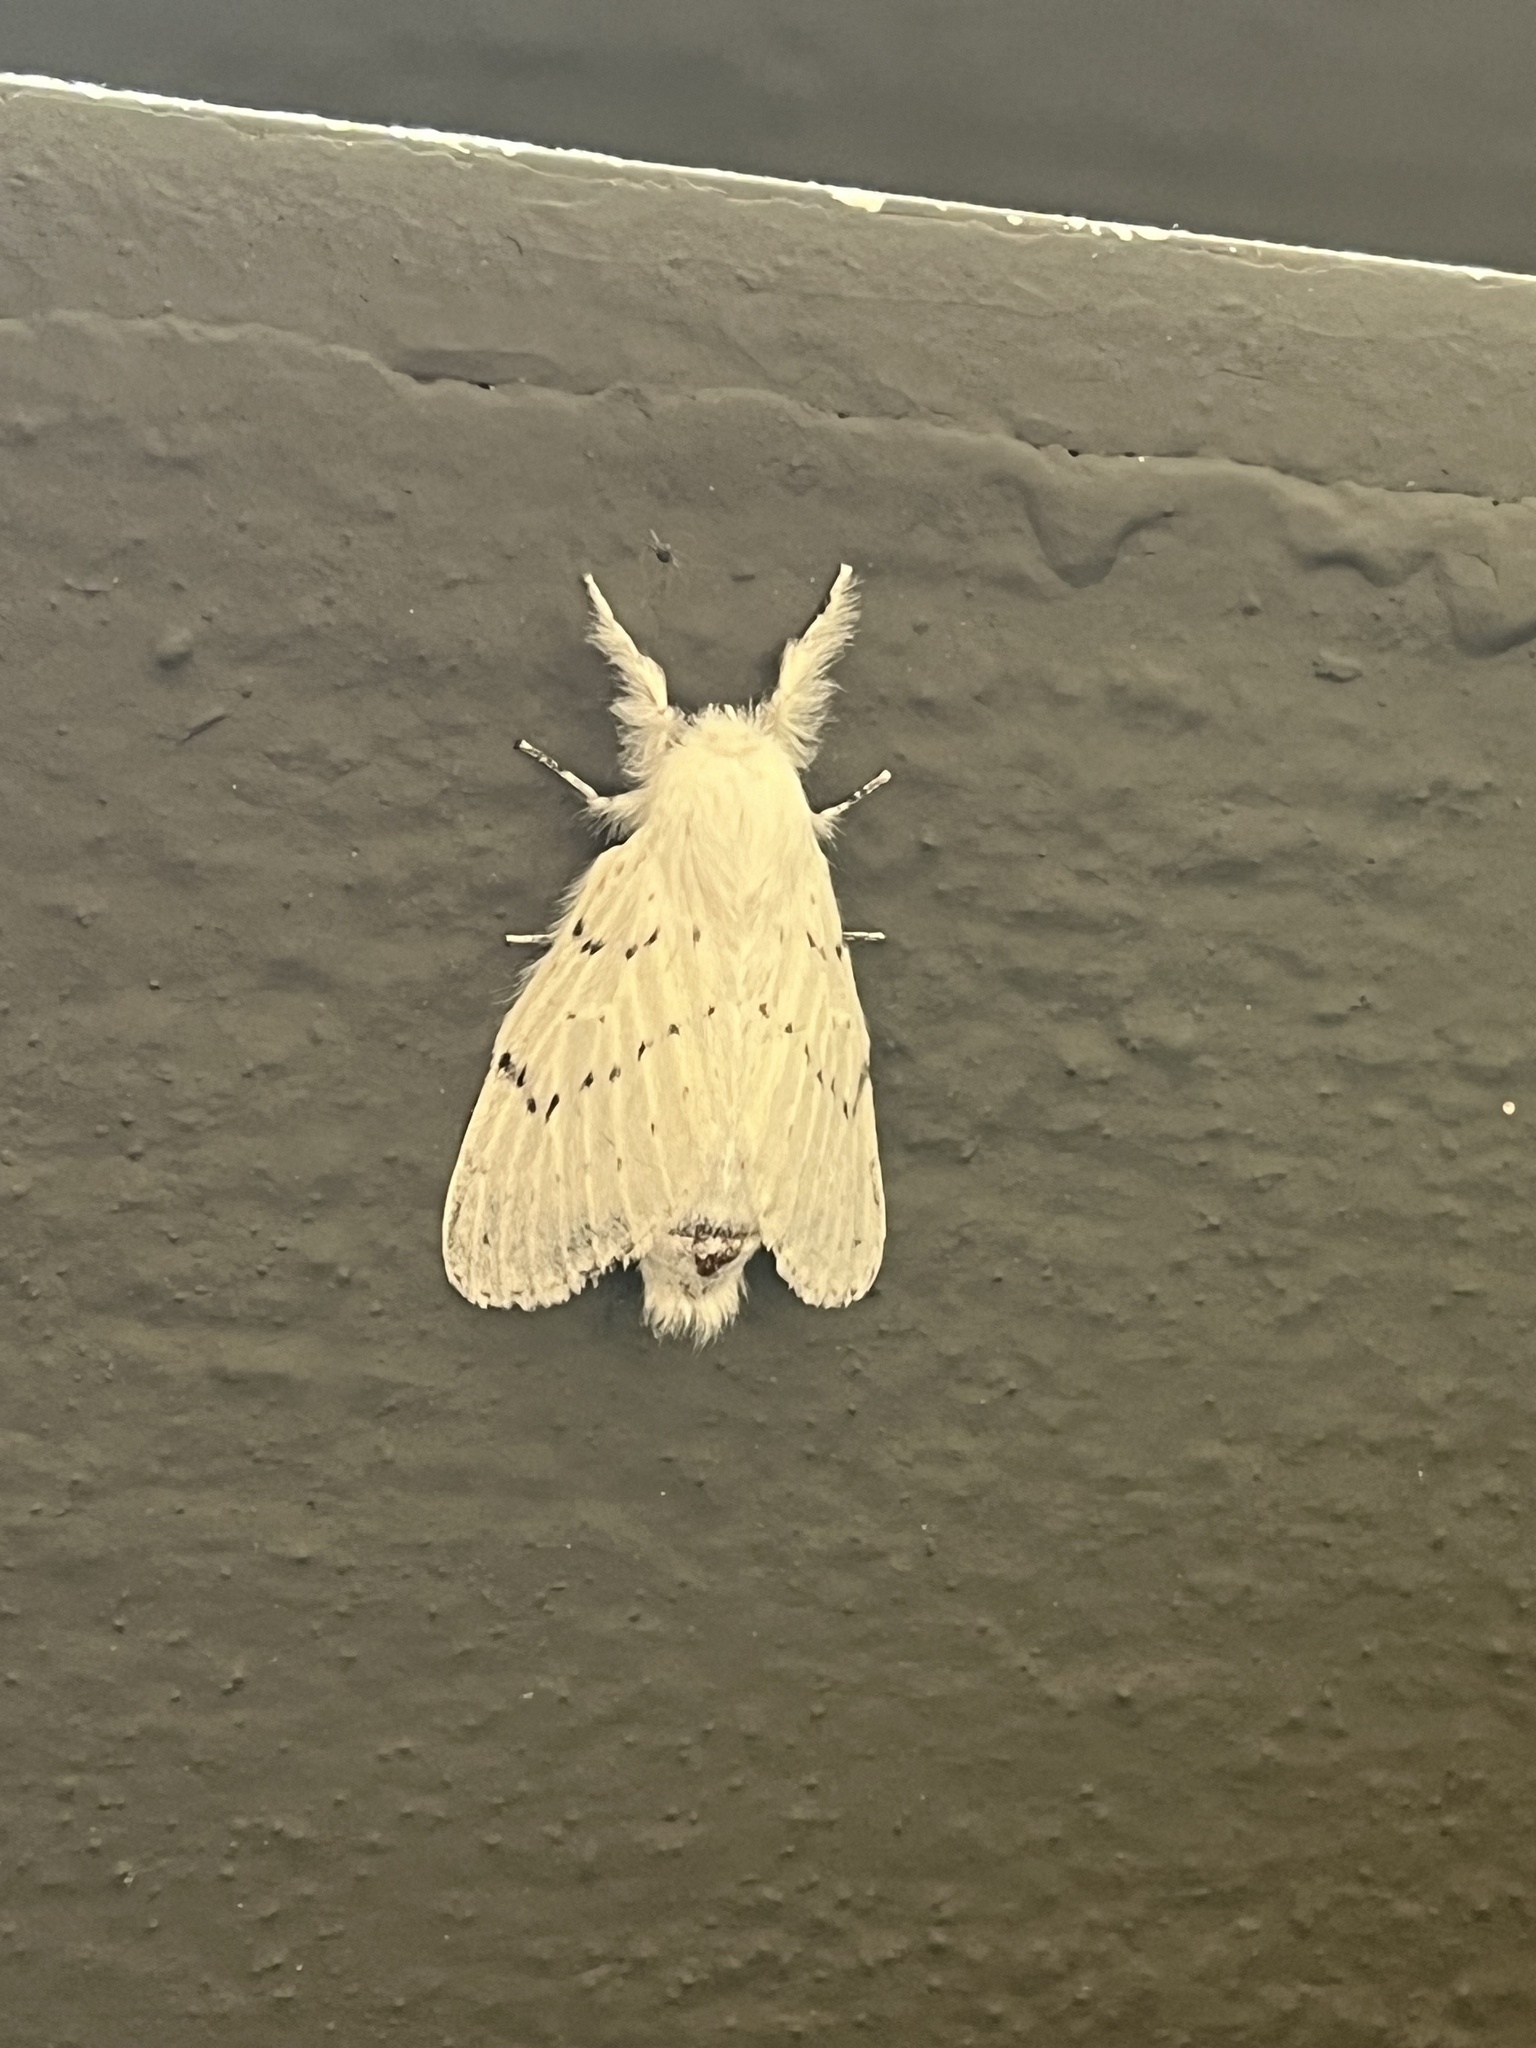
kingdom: Animalia
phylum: Arthropoda
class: Insecta
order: Lepidoptera
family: Lasiocampidae
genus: Artace
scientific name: Artace cribrarius
